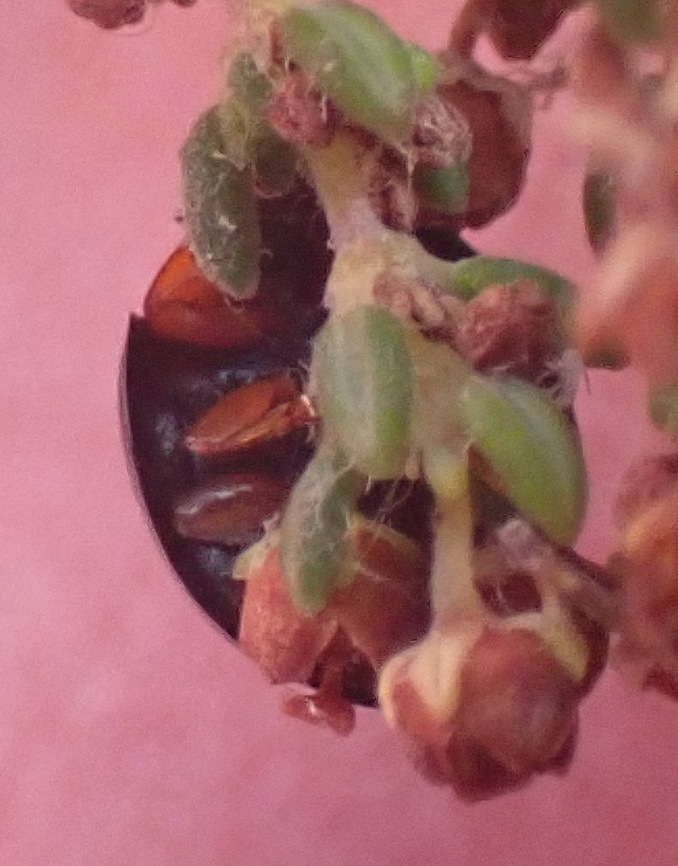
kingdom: Animalia
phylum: Arthropoda
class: Insecta
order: Coleoptera
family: Coccinellidae
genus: Exochomus
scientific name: Exochomus flavipes
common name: Ladybird beetle
